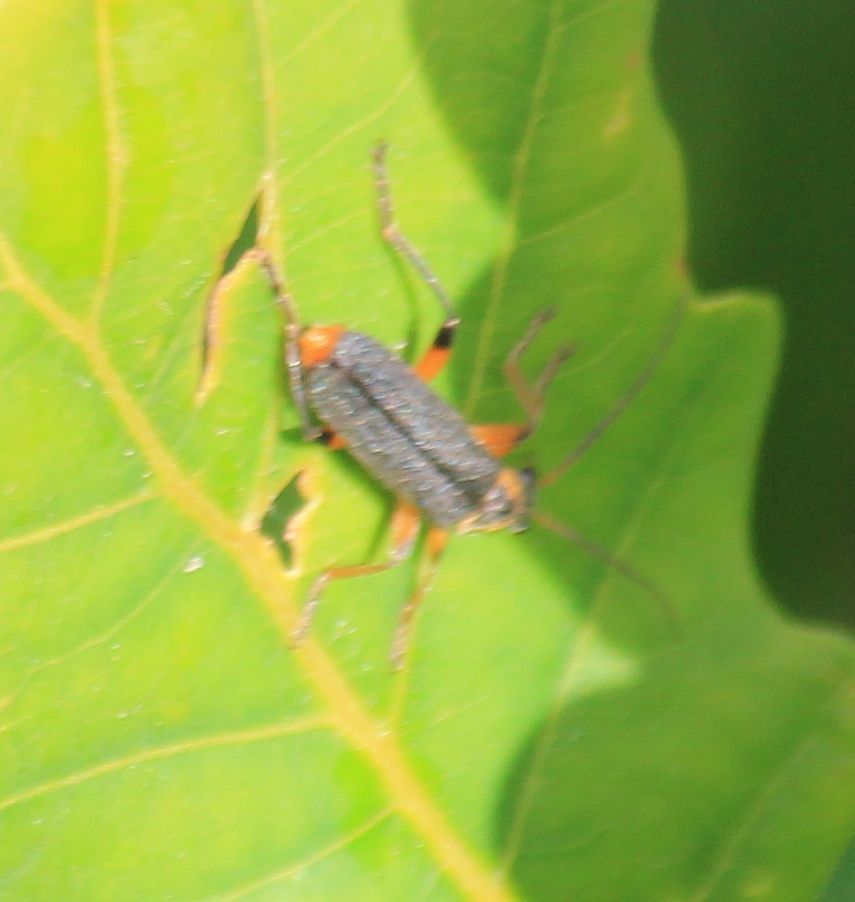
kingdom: Animalia
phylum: Arthropoda
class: Insecta
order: Coleoptera
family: Cantharidae
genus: Cantharis
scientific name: Cantharis nigricans
